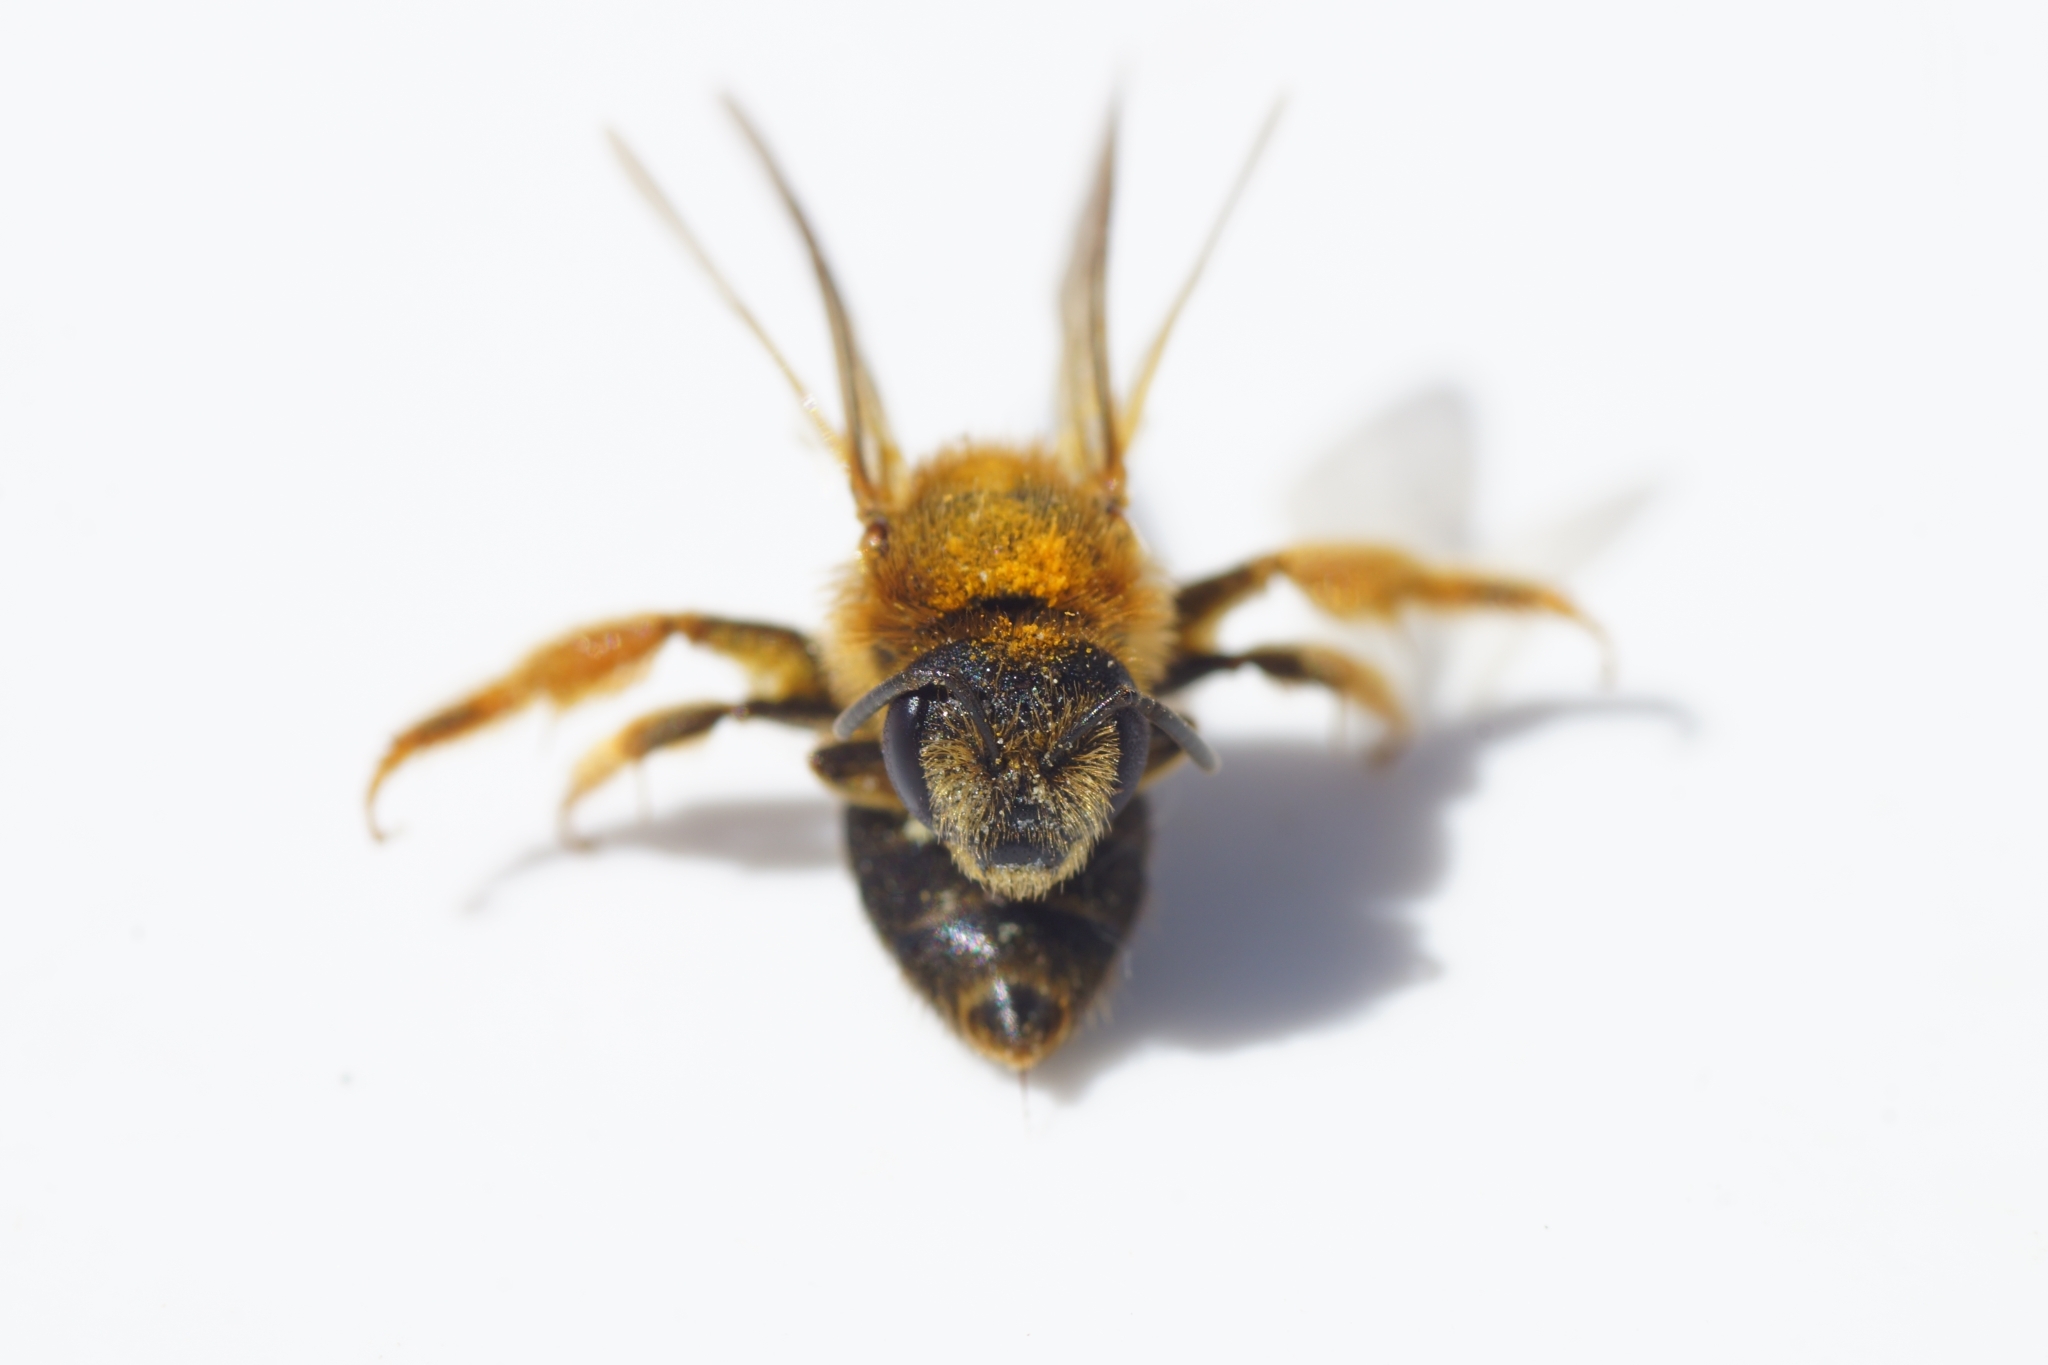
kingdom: Animalia
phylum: Arthropoda
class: Insecta
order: Hymenoptera
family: Halictidae
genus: Halictus
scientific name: Halictus rubicundus
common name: Orange-legged furrow bee
